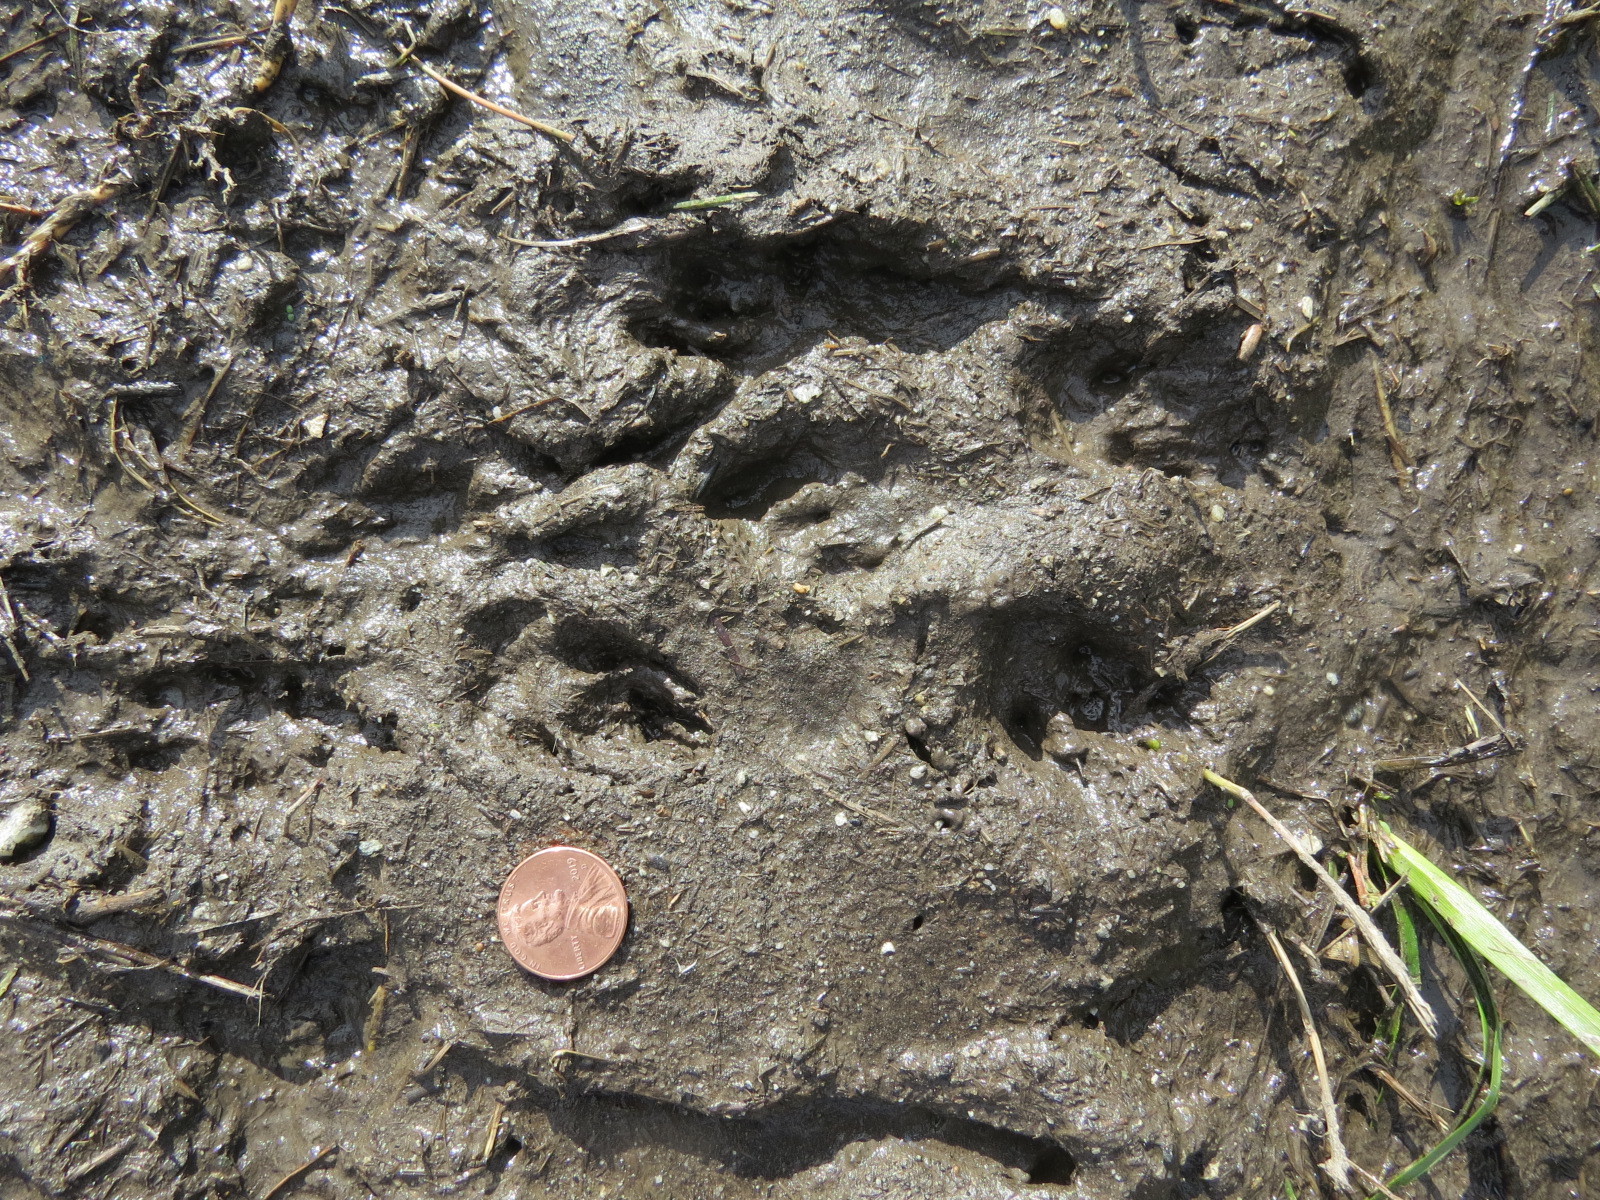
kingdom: Animalia
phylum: Chordata
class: Mammalia
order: Lagomorpha
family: Leporidae
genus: Sylvilagus
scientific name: Sylvilagus bachmani
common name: Brush rabbit
